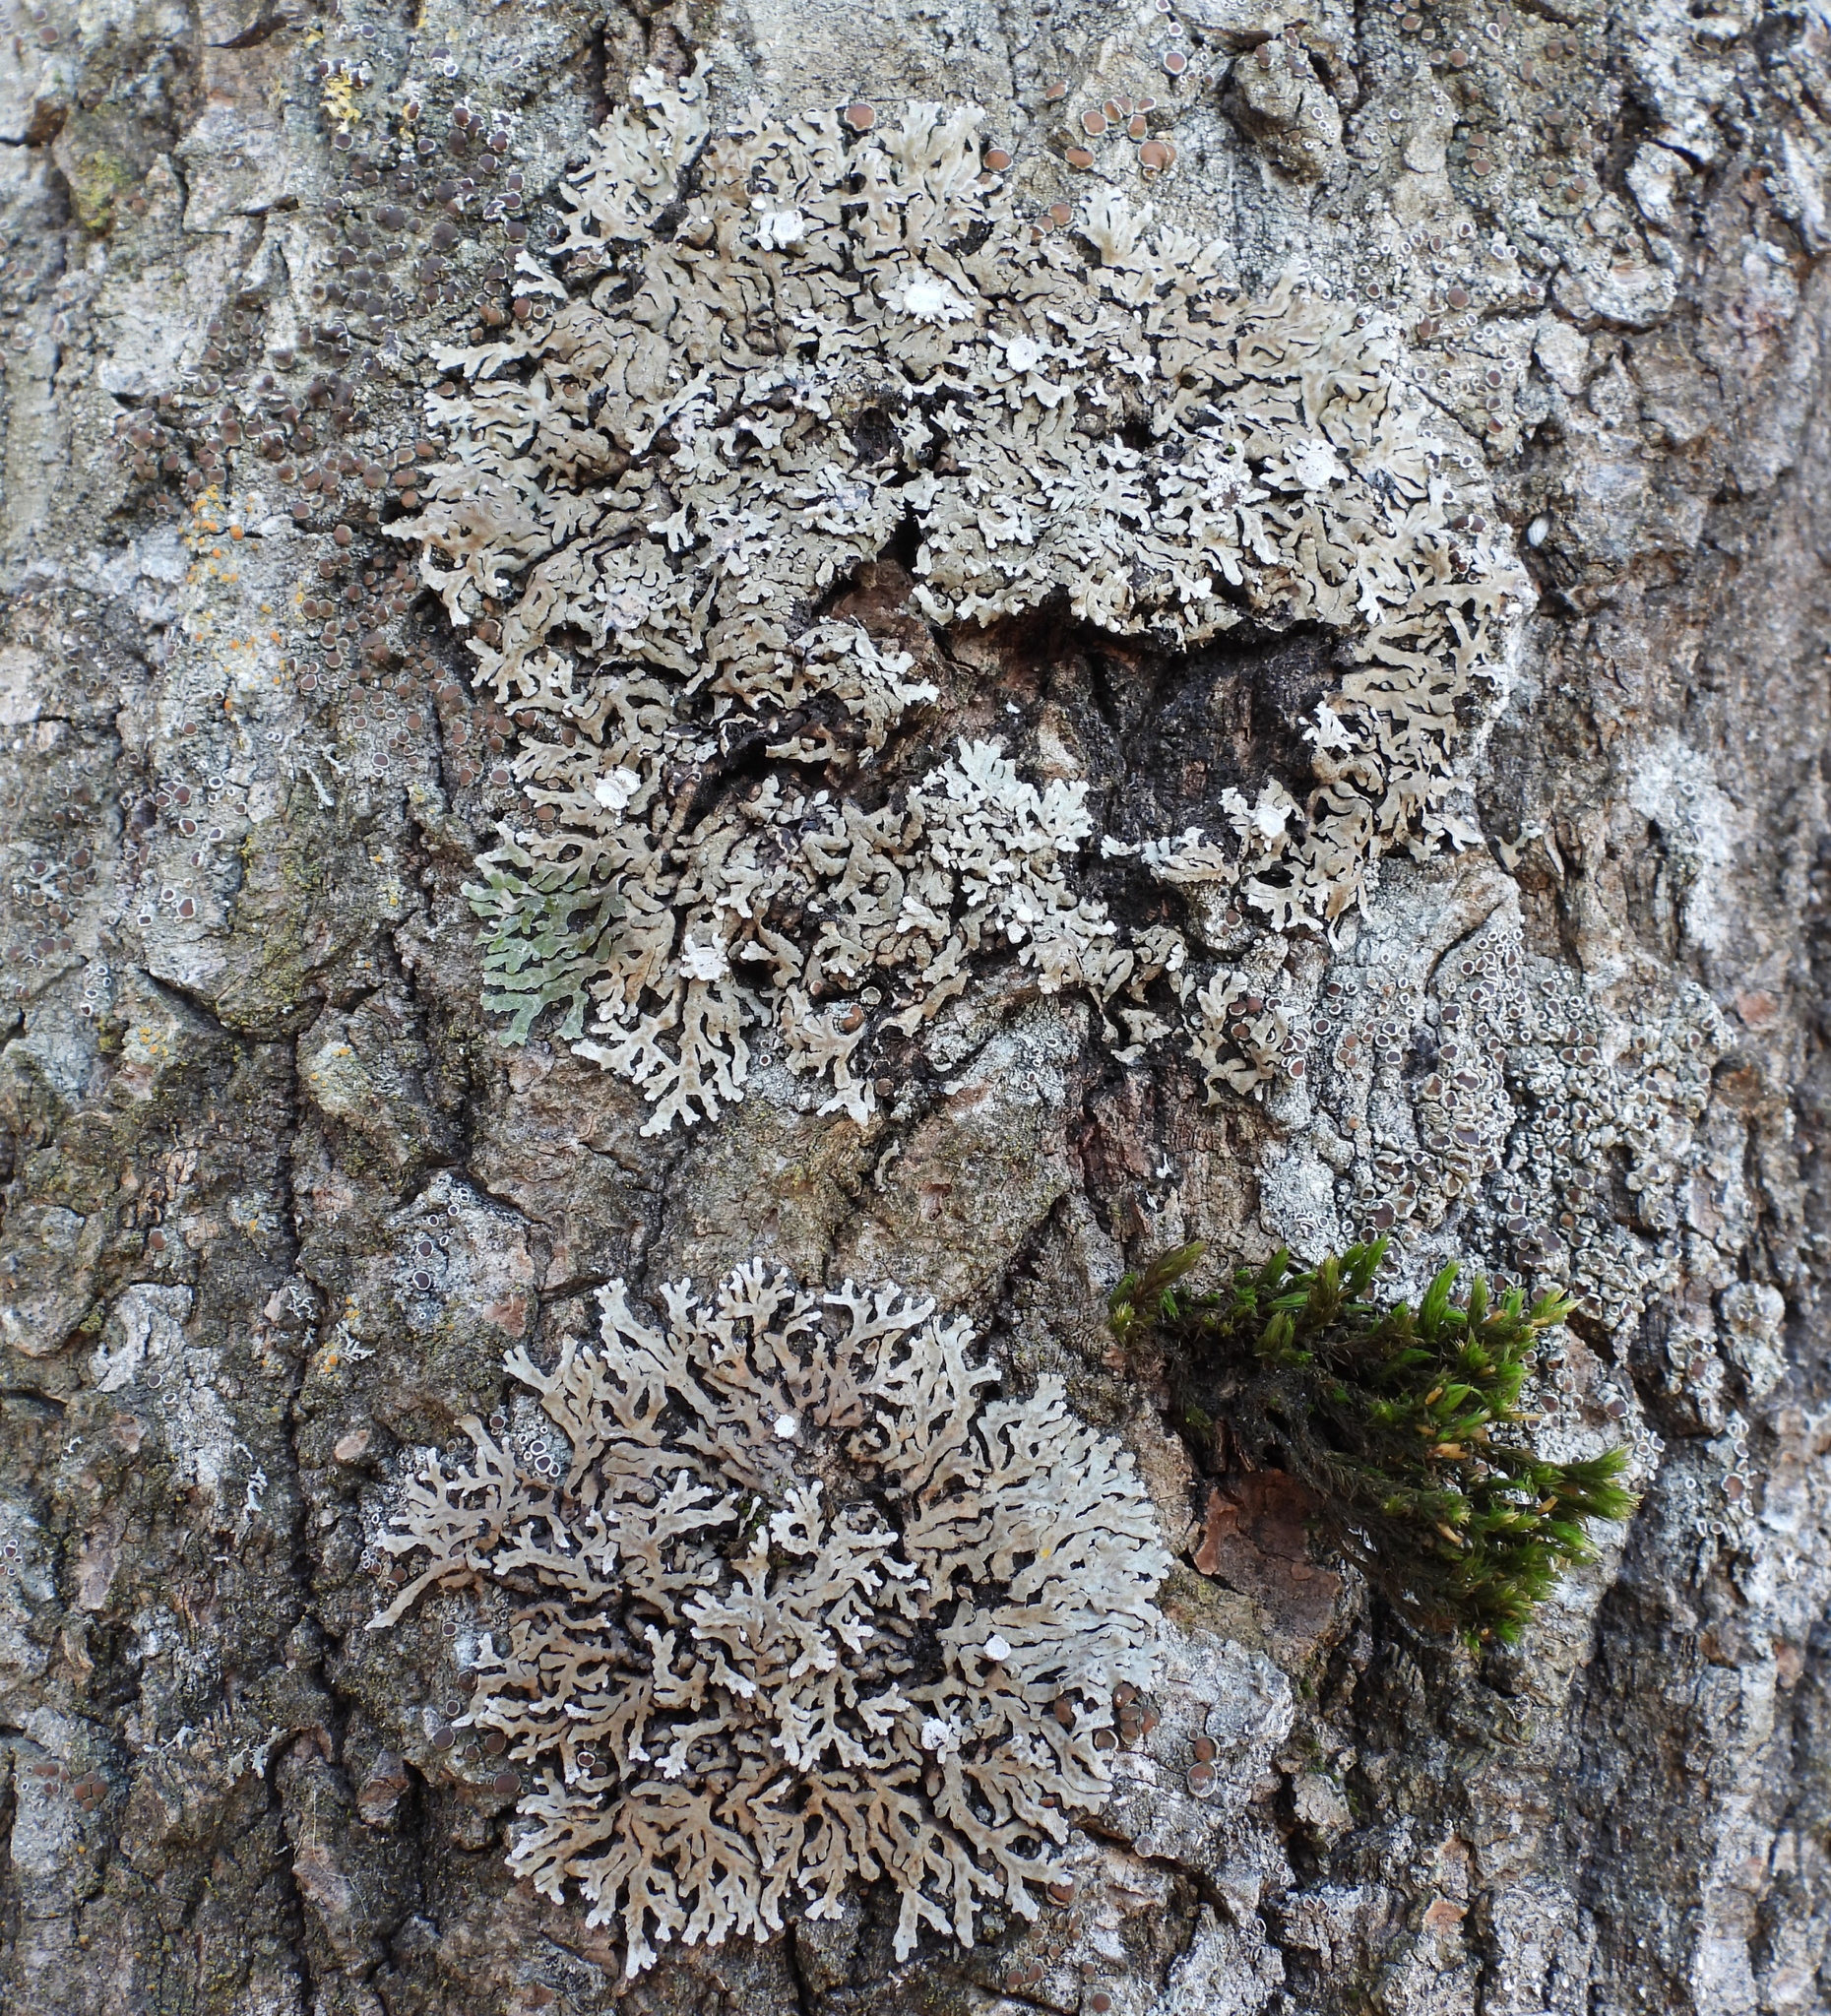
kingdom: Fungi
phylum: Ascomycota
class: Lecanoromycetes
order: Caliciales
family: Physciaceae
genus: Physconia
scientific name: Physconia distorta
